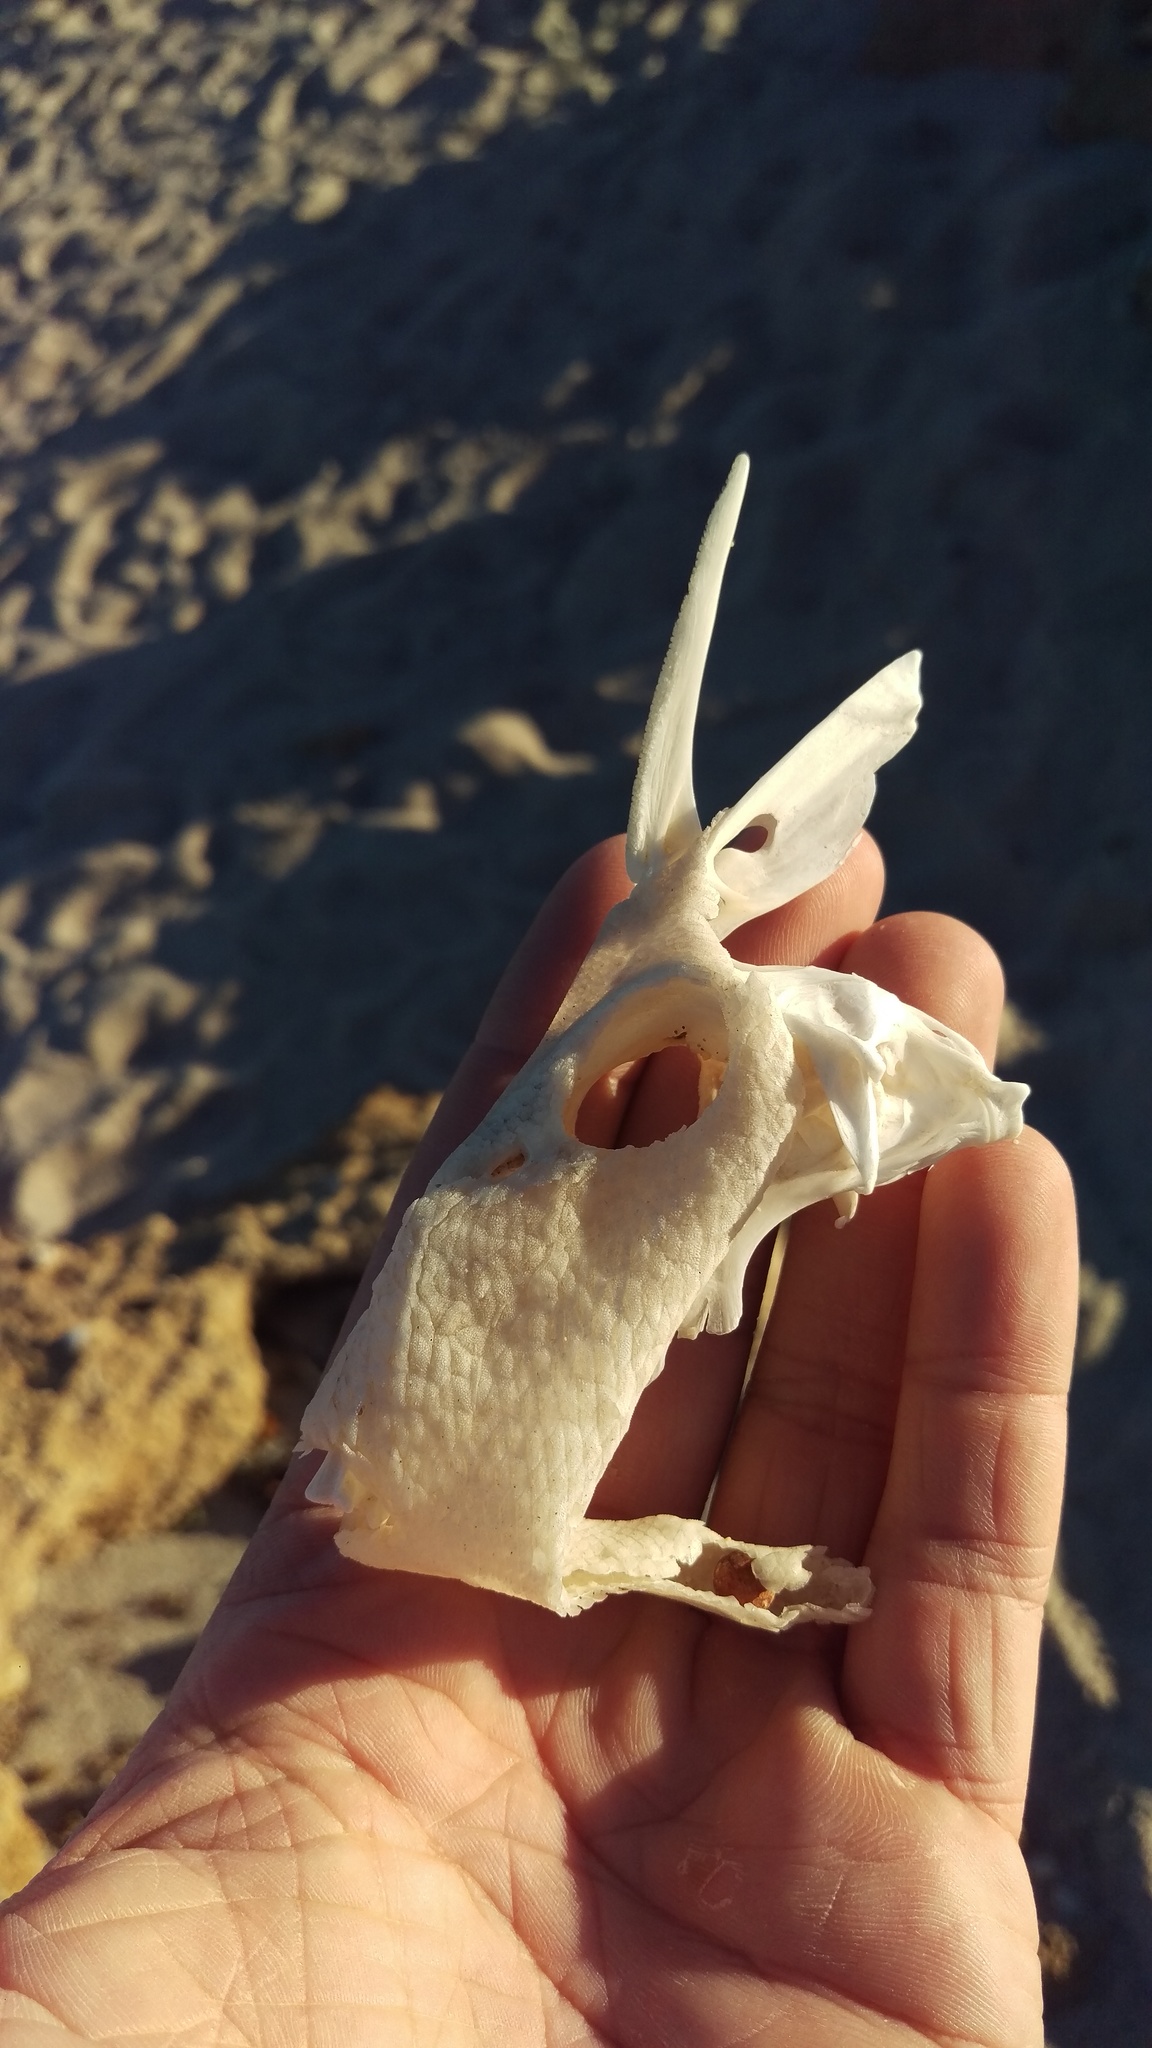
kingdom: Animalia
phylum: Chordata
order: Tetraodontiformes
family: Balistidae
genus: Balistes
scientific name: Balistes polylepis
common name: Finescale triggerfish
